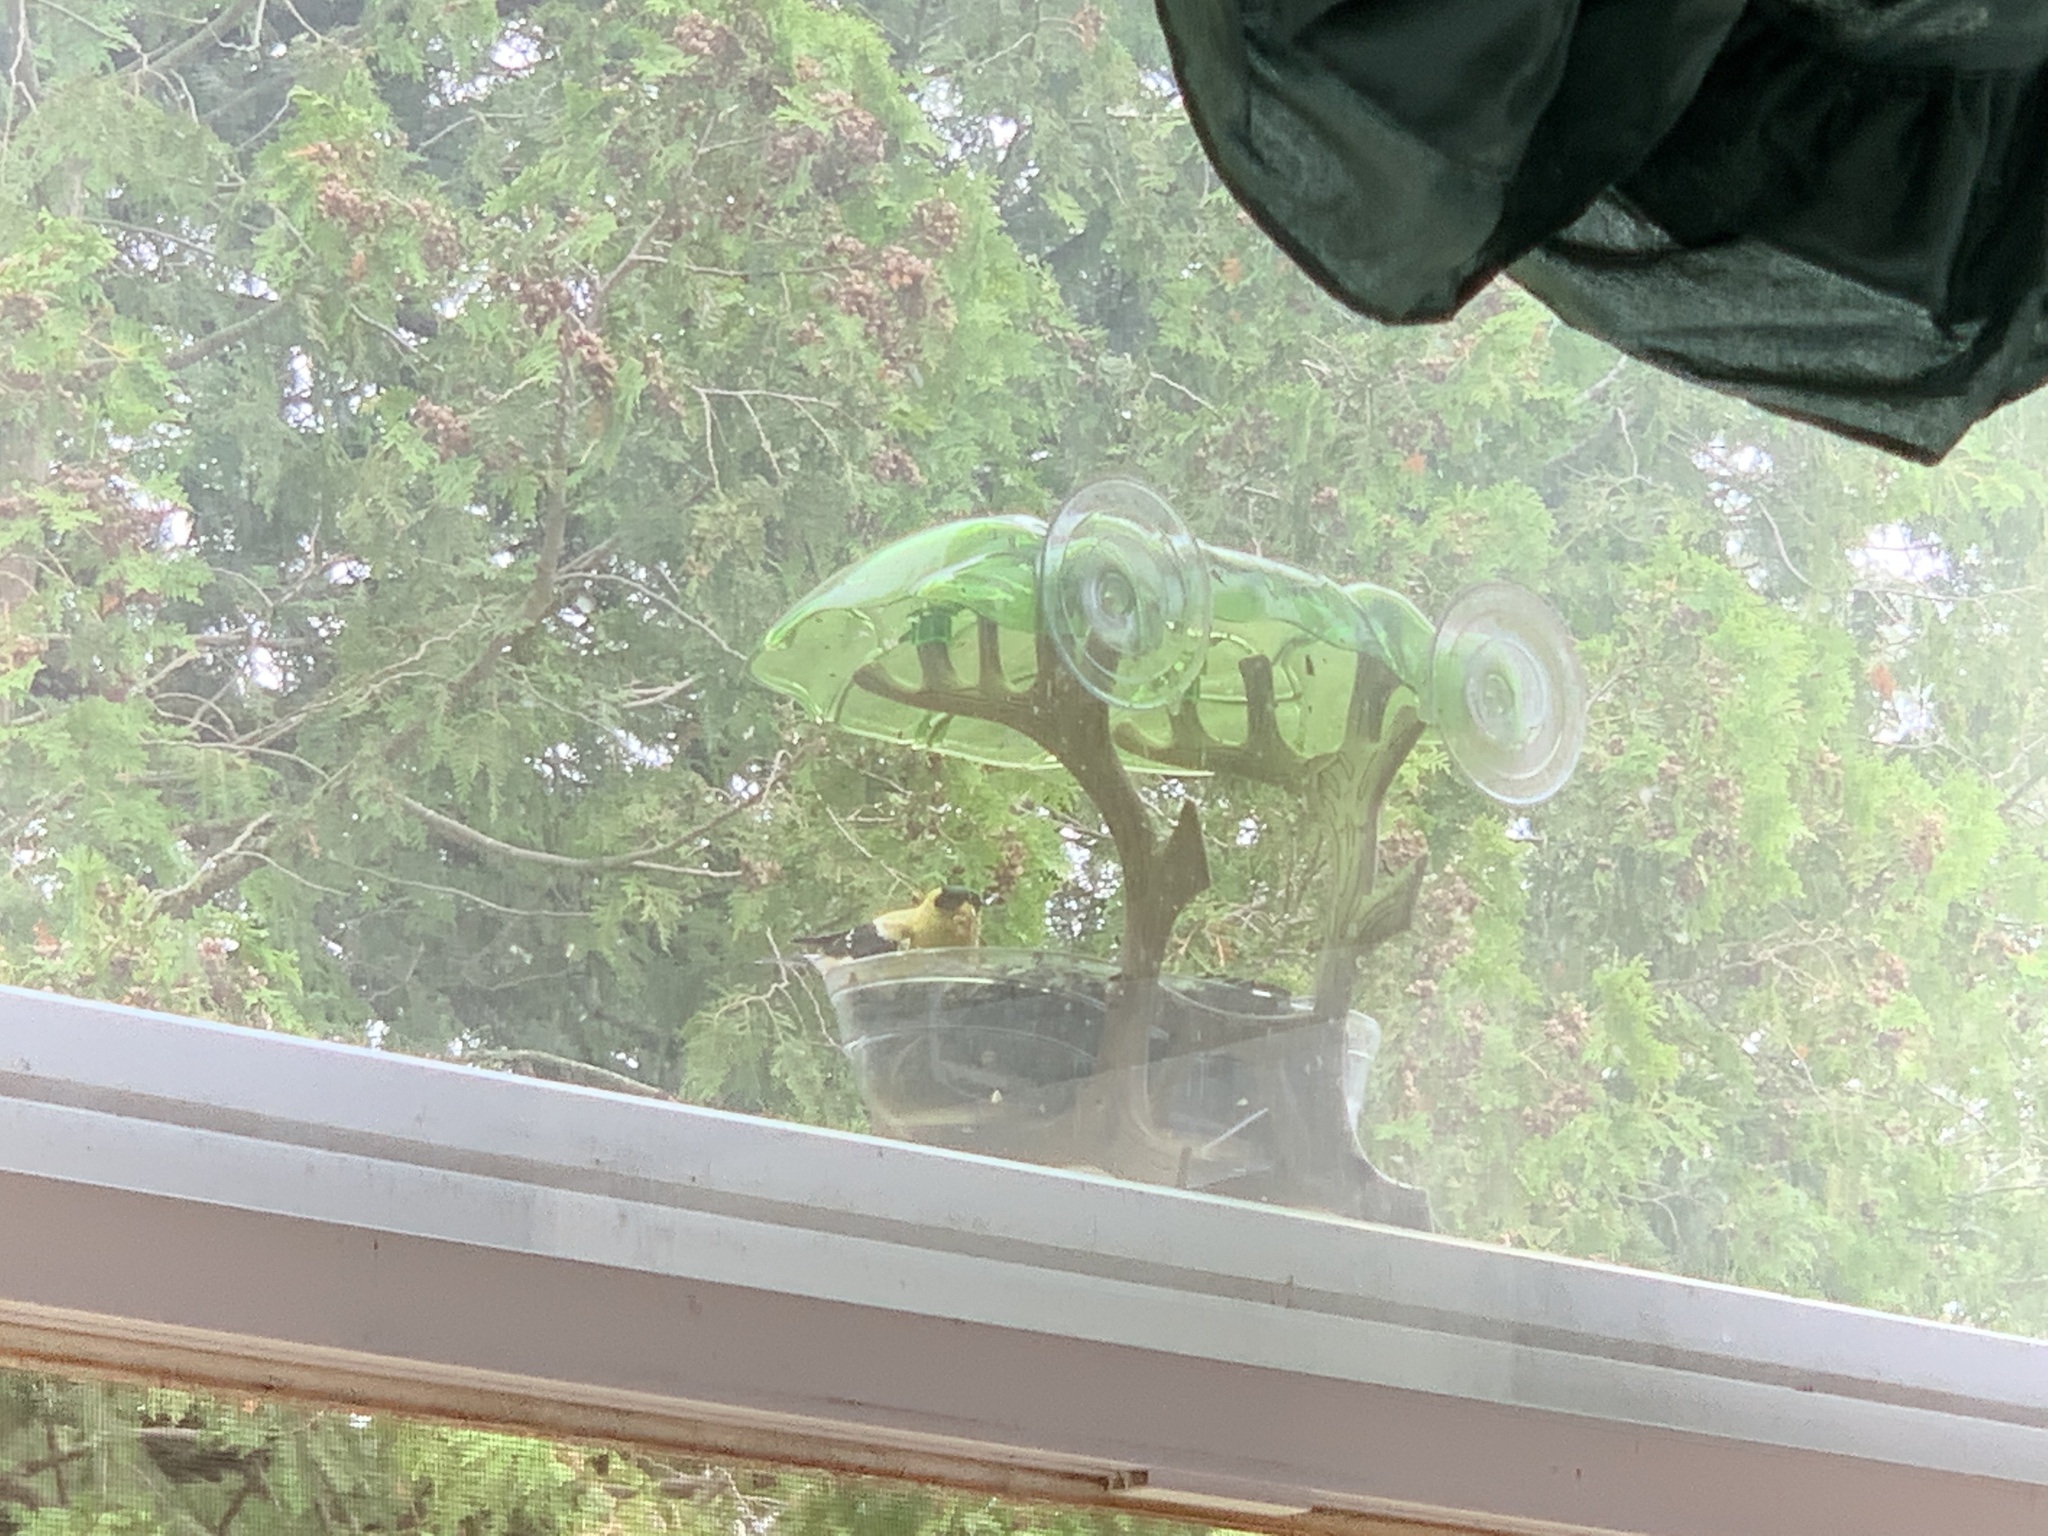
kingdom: Animalia
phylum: Chordata
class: Aves
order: Passeriformes
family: Fringillidae
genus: Spinus
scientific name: Spinus tristis
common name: American goldfinch
